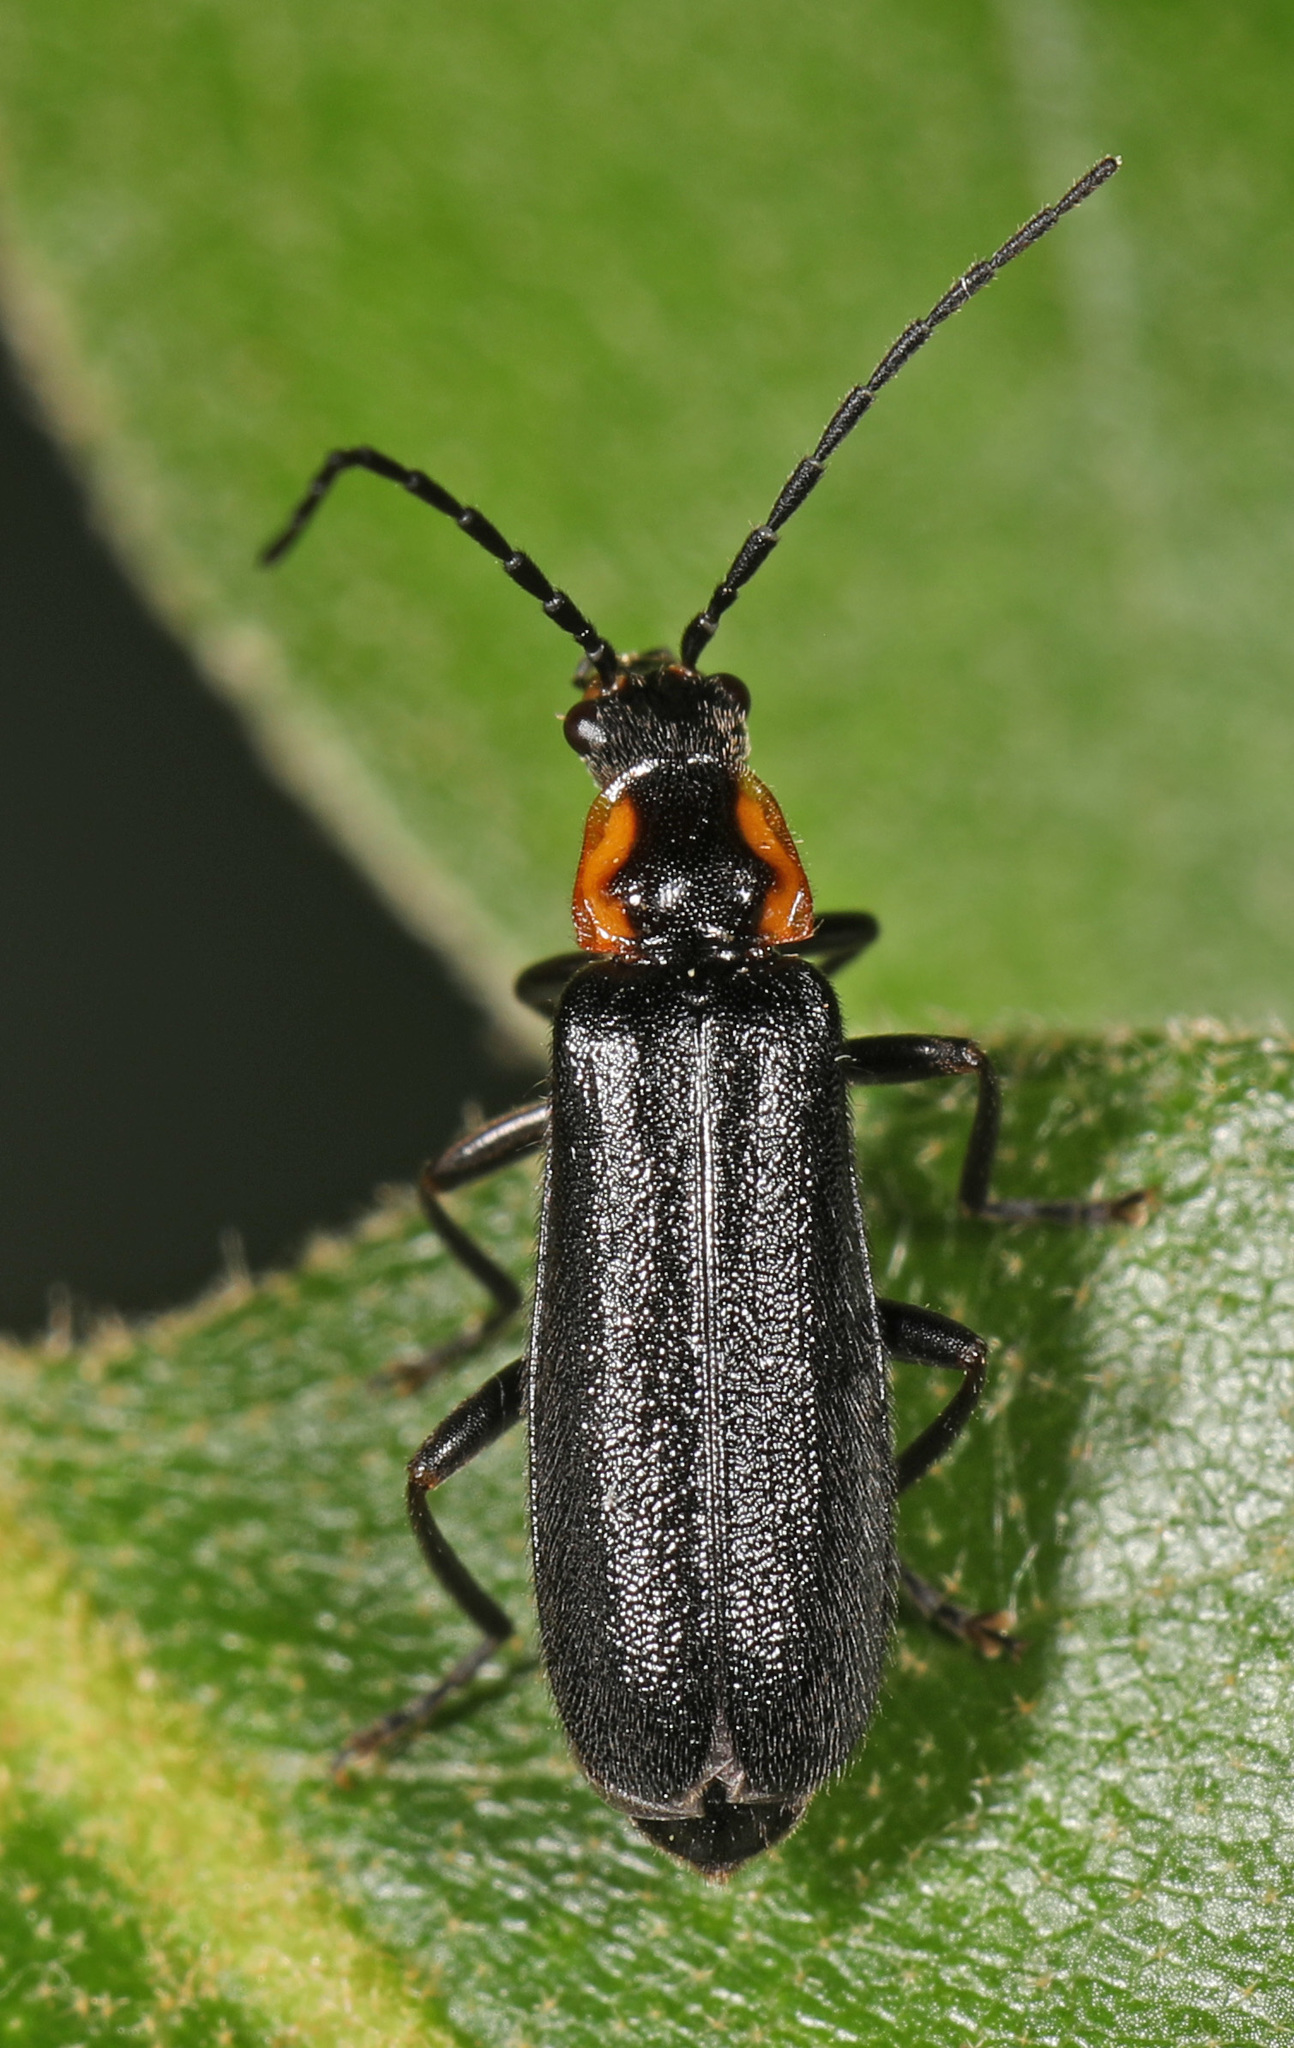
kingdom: Animalia
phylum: Arthropoda
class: Insecta
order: Coleoptera
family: Cantharidae
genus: Rhagonycha
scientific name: Rhagonycha angulata
